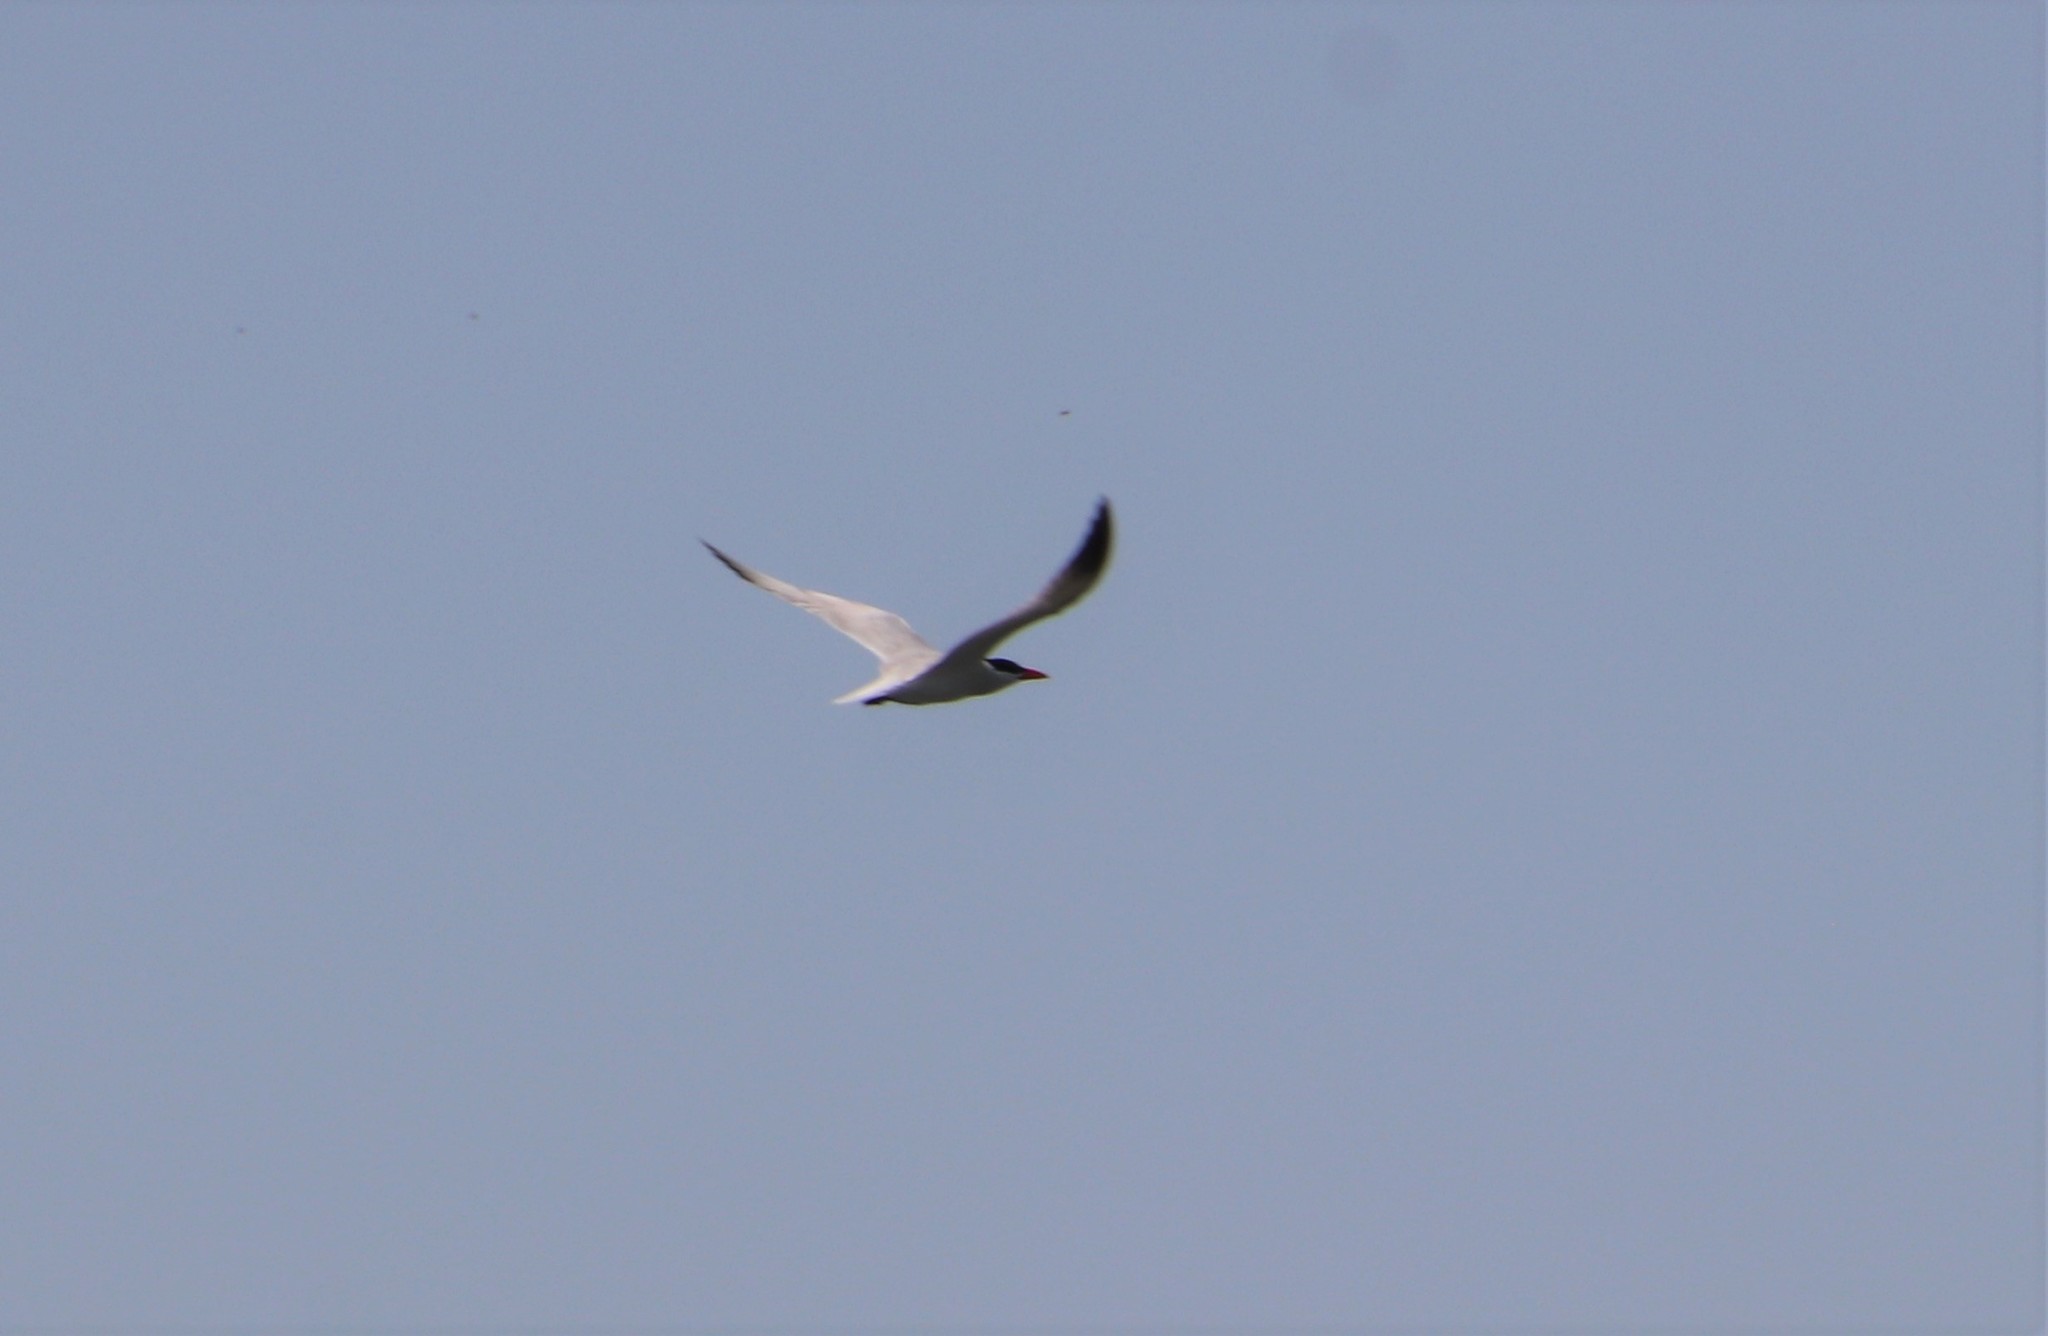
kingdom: Animalia
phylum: Chordata
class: Aves
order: Charadriiformes
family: Laridae
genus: Hydroprogne
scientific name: Hydroprogne caspia
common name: Caspian tern
